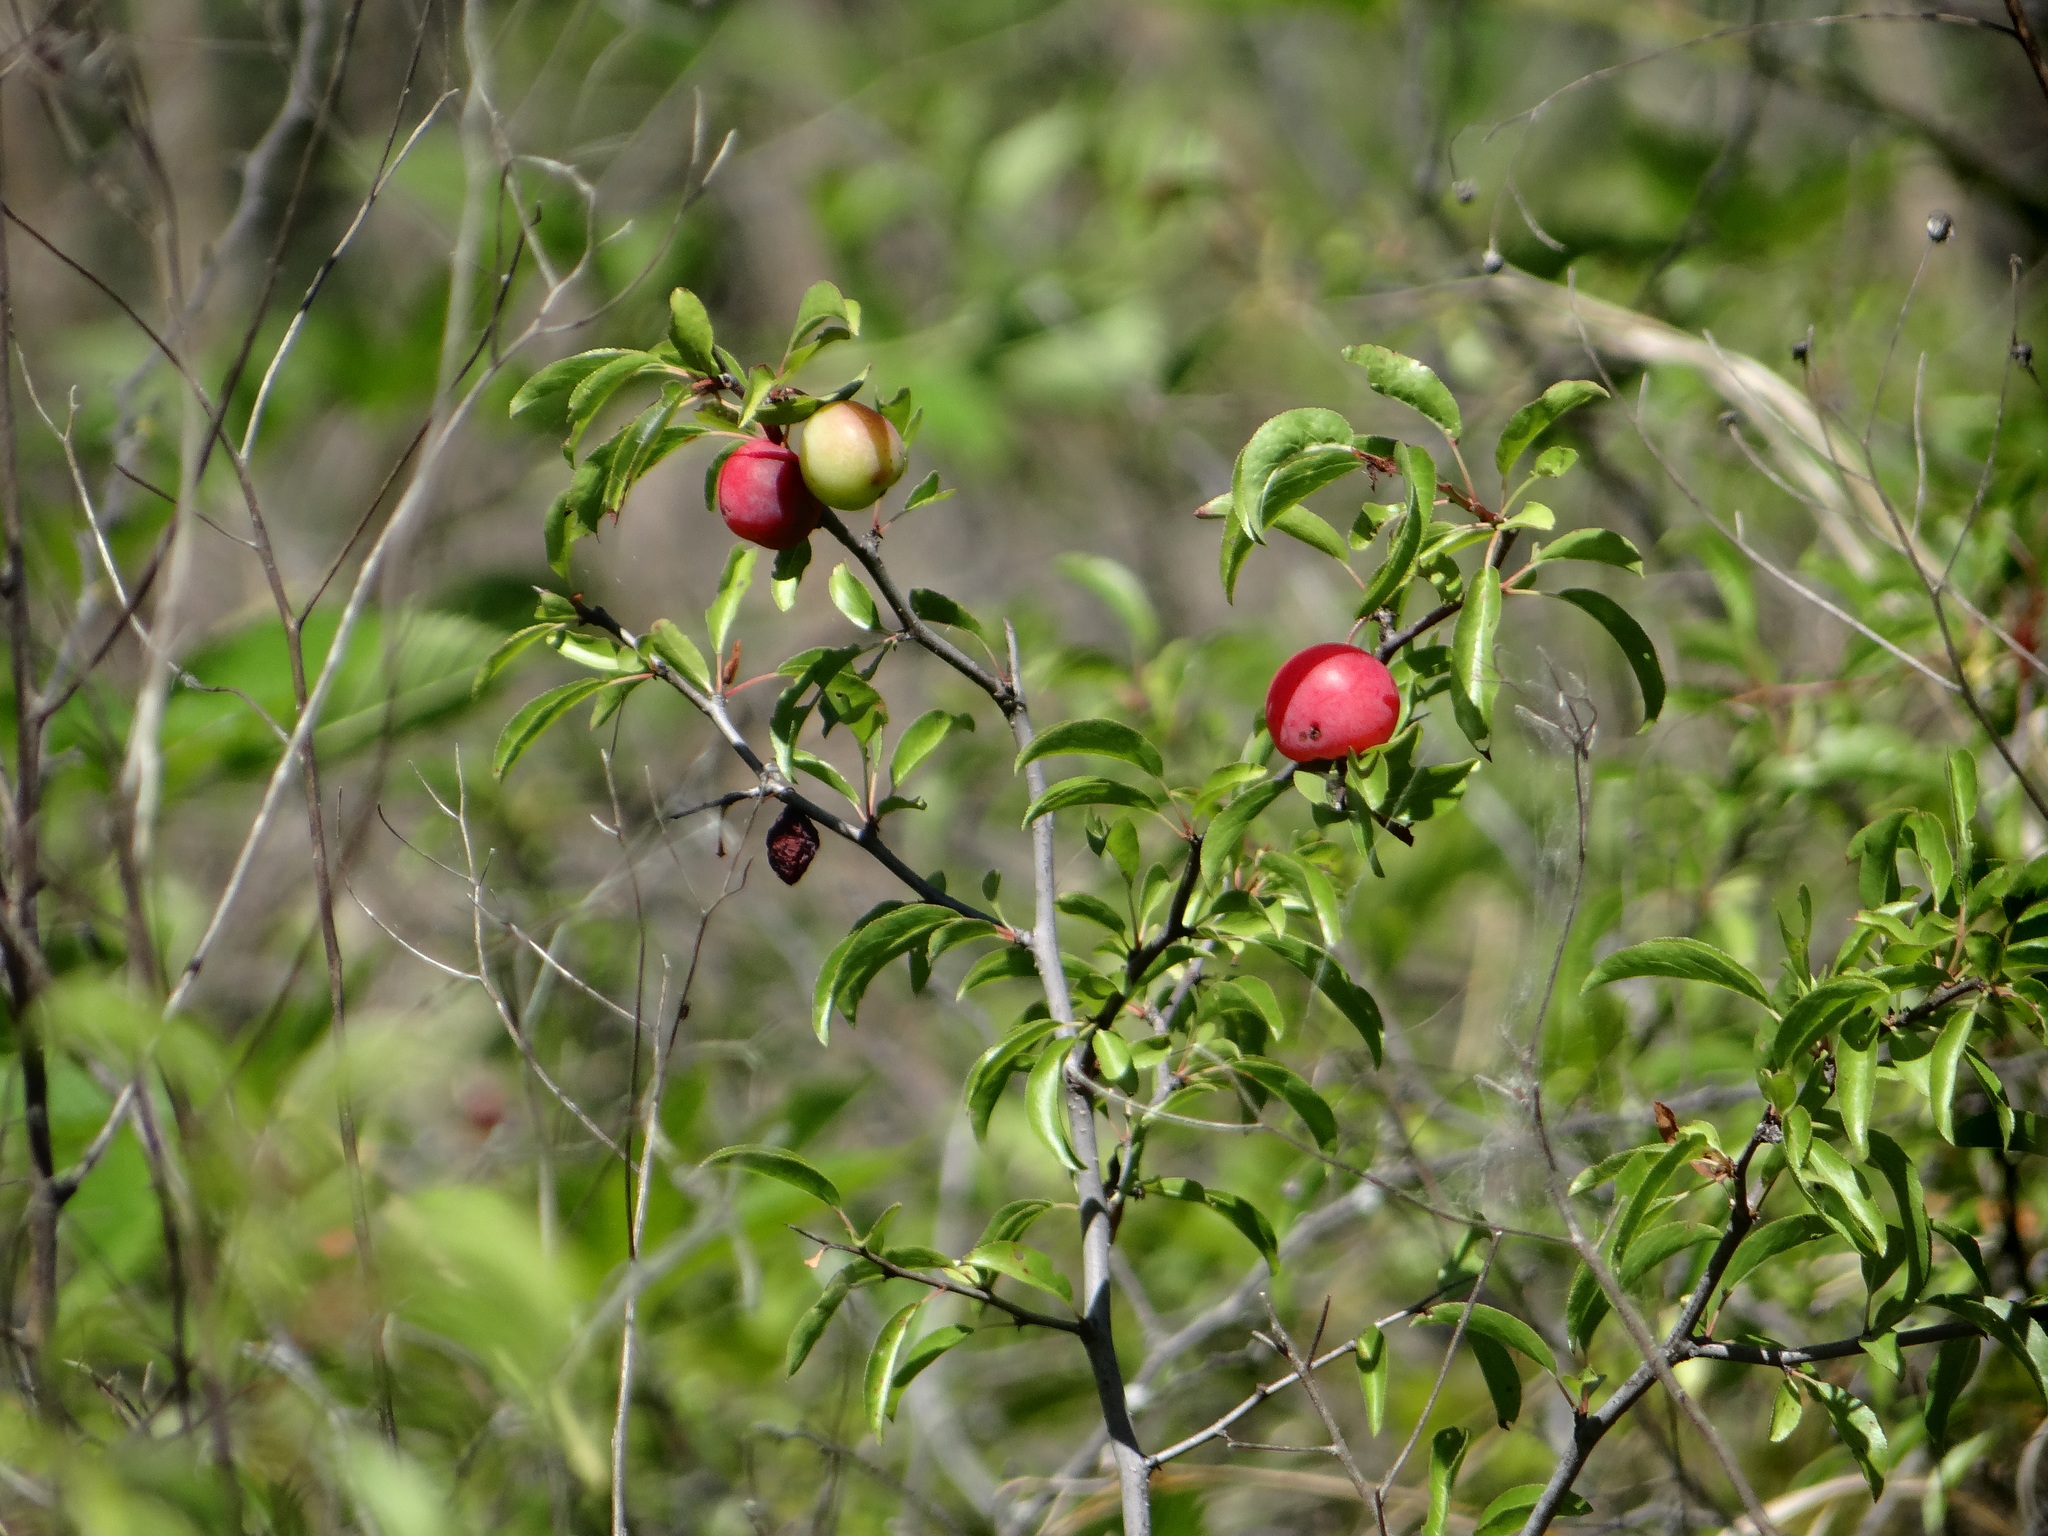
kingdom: Plantae
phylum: Tracheophyta
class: Magnoliopsida
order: Rosales
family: Rosaceae
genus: Prunus
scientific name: Prunus angustifolia
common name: Cherokee plum
